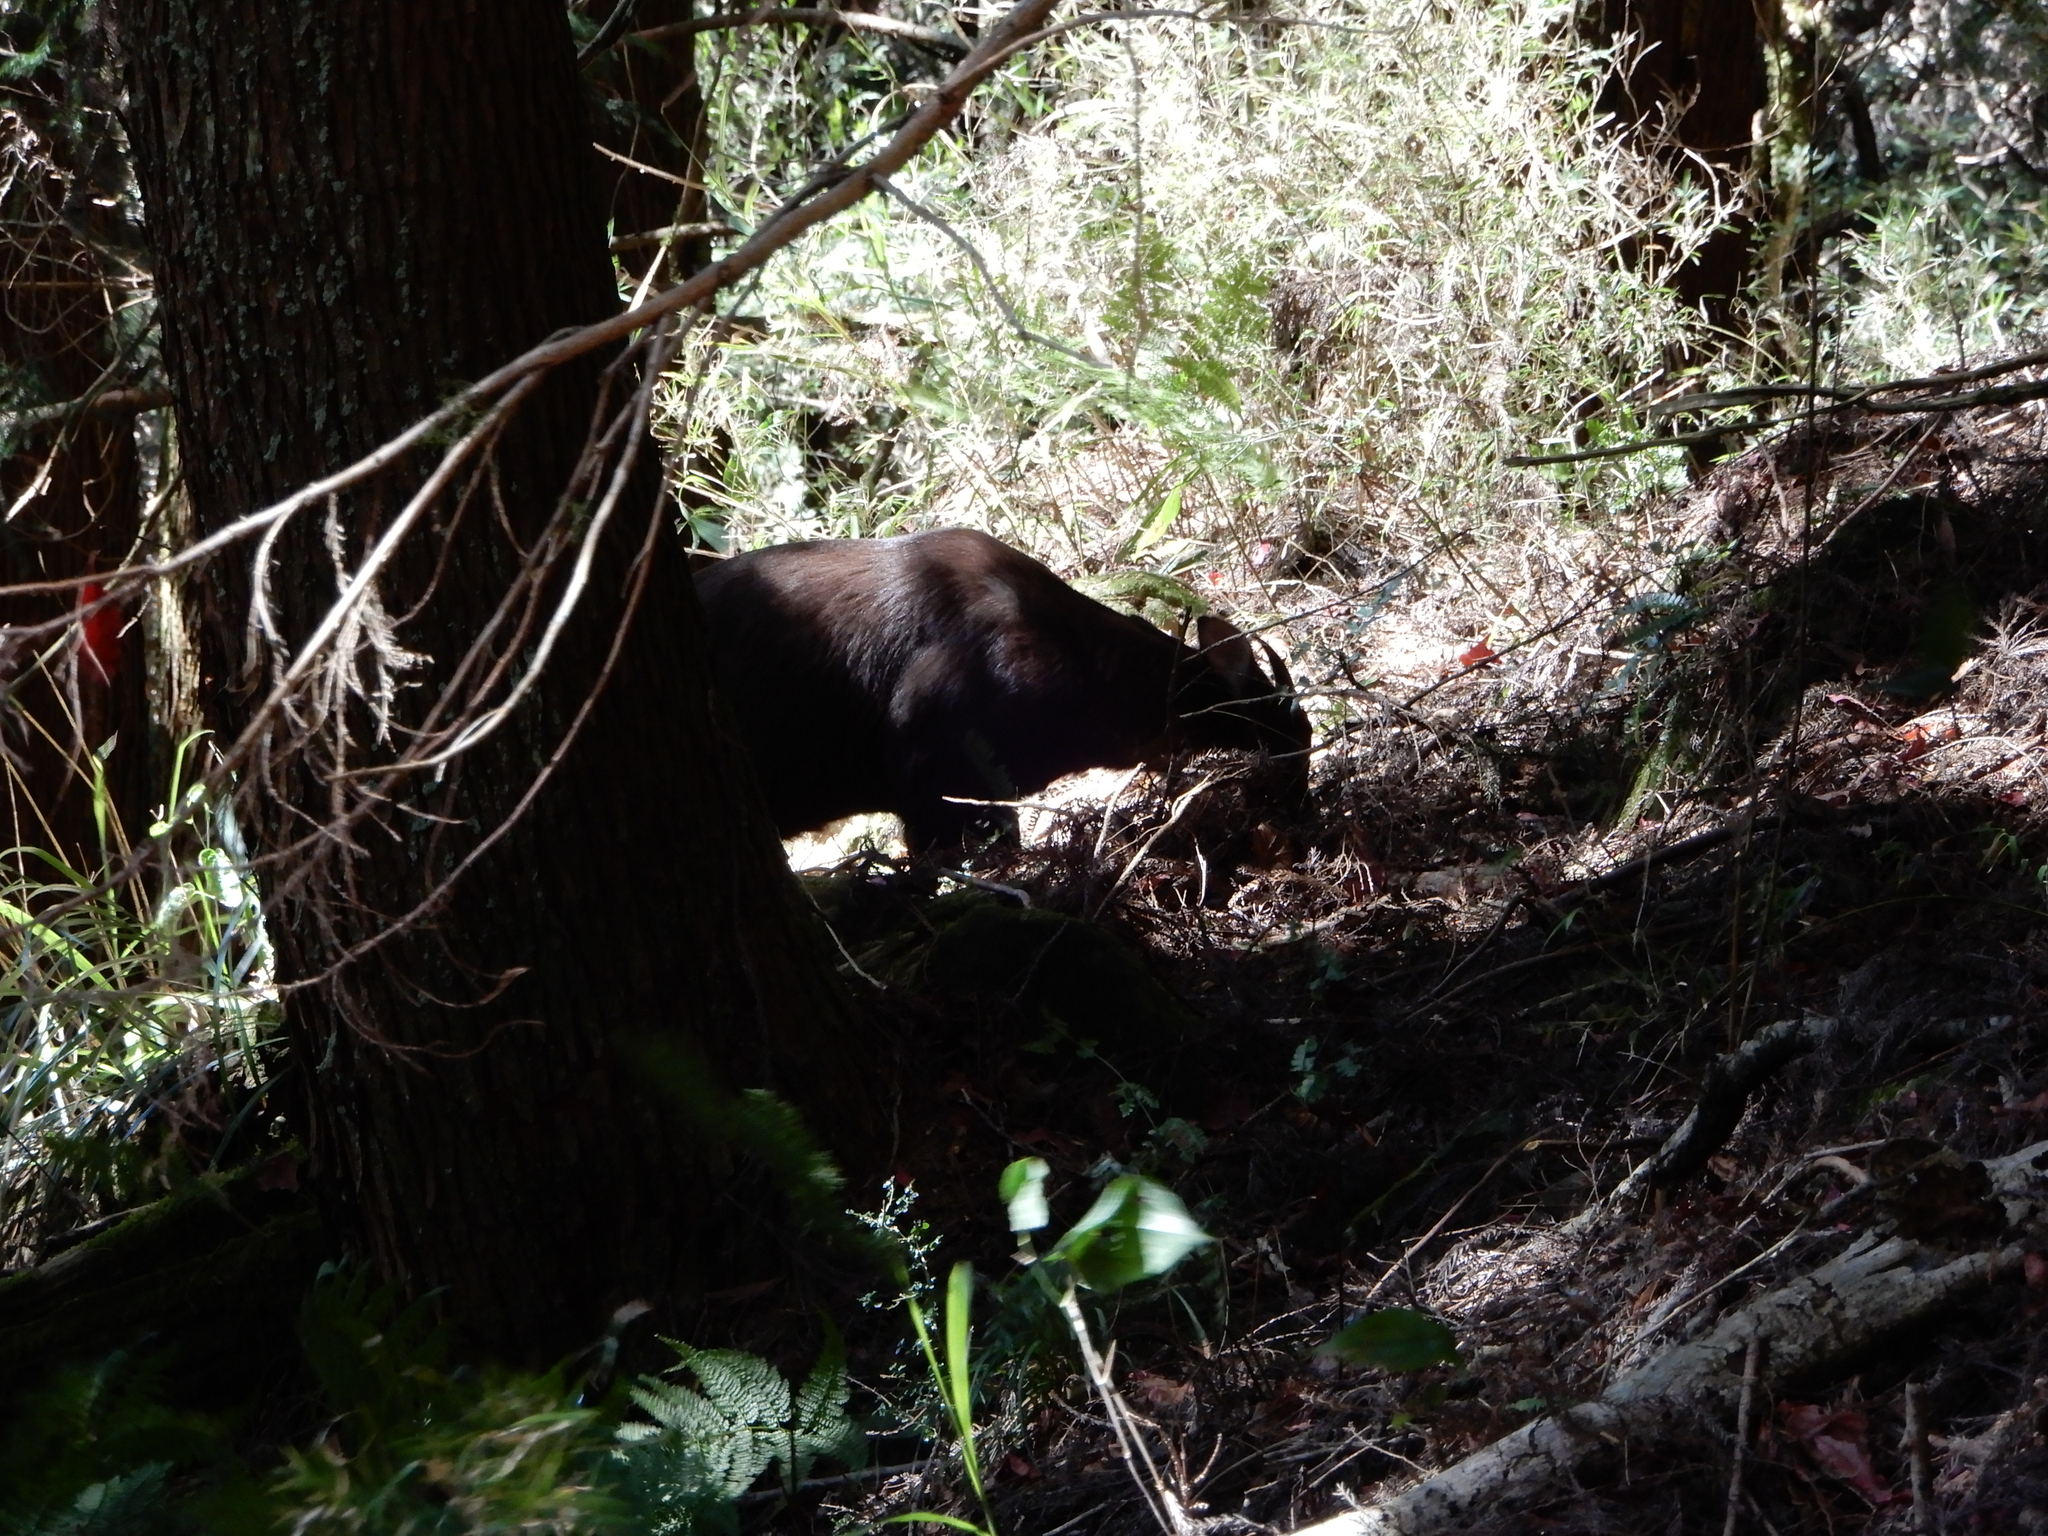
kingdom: Animalia
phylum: Chordata
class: Mammalia
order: Artiodactyla
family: Bovidae
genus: Capricornis
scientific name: Capricornis swinhoei
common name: Formosan serow
